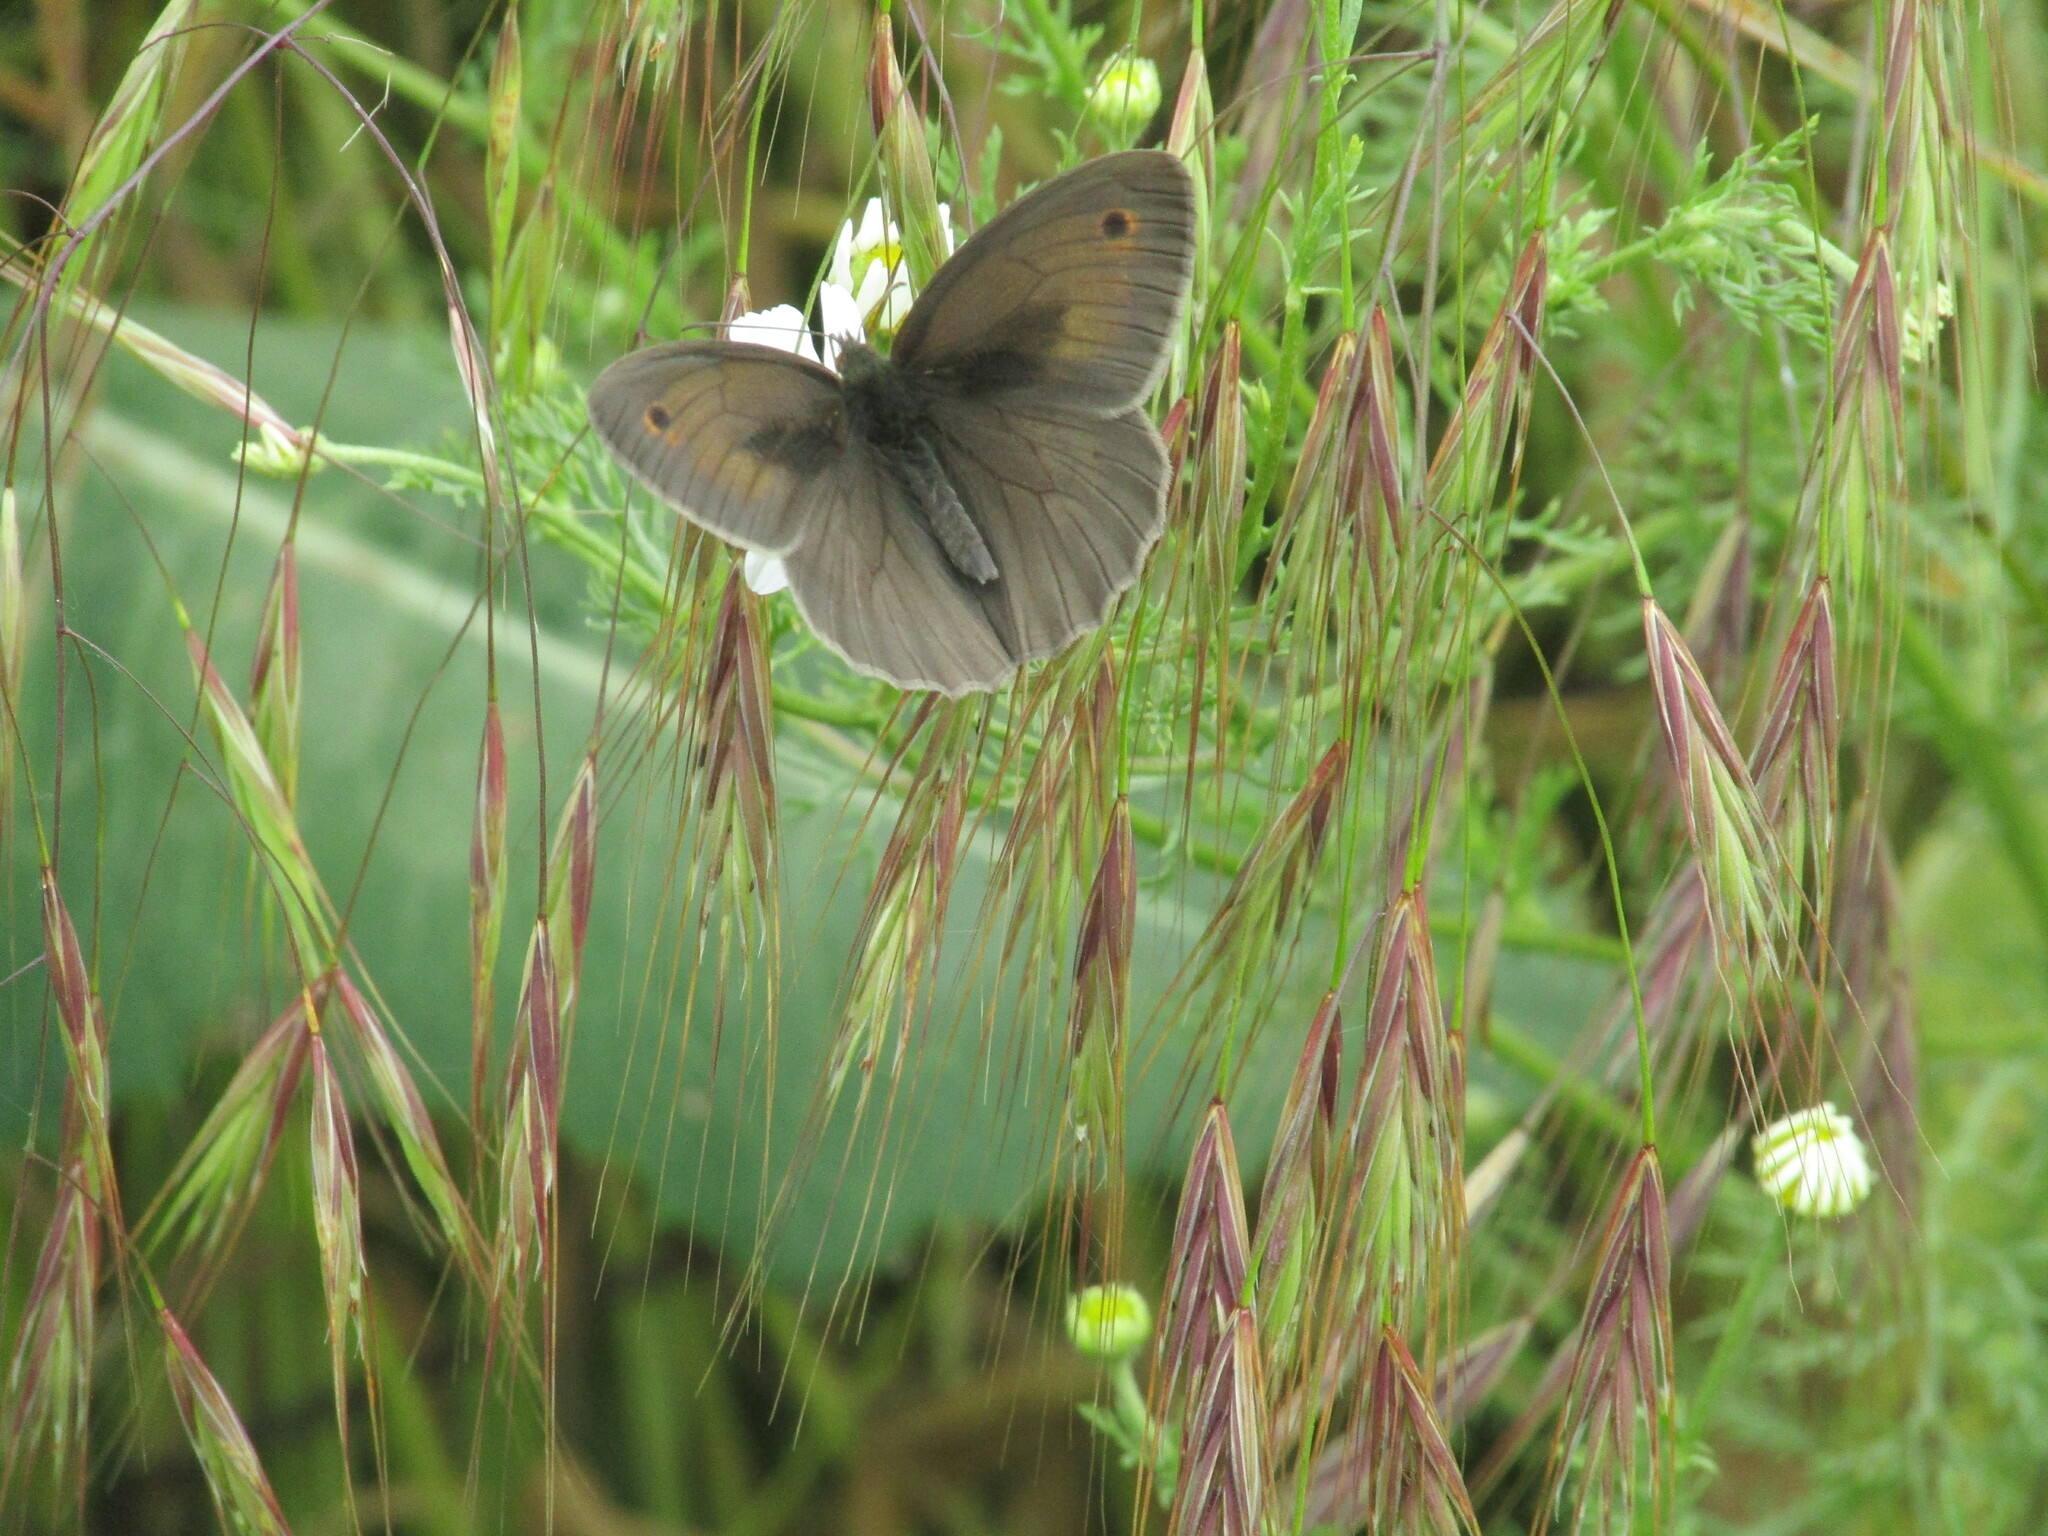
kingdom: Animalia
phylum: Arthropoda
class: Insecta
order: Lepidoptera
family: Nymphalidae
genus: Maniola
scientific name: Maniola jurtina
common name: Meadow brown
